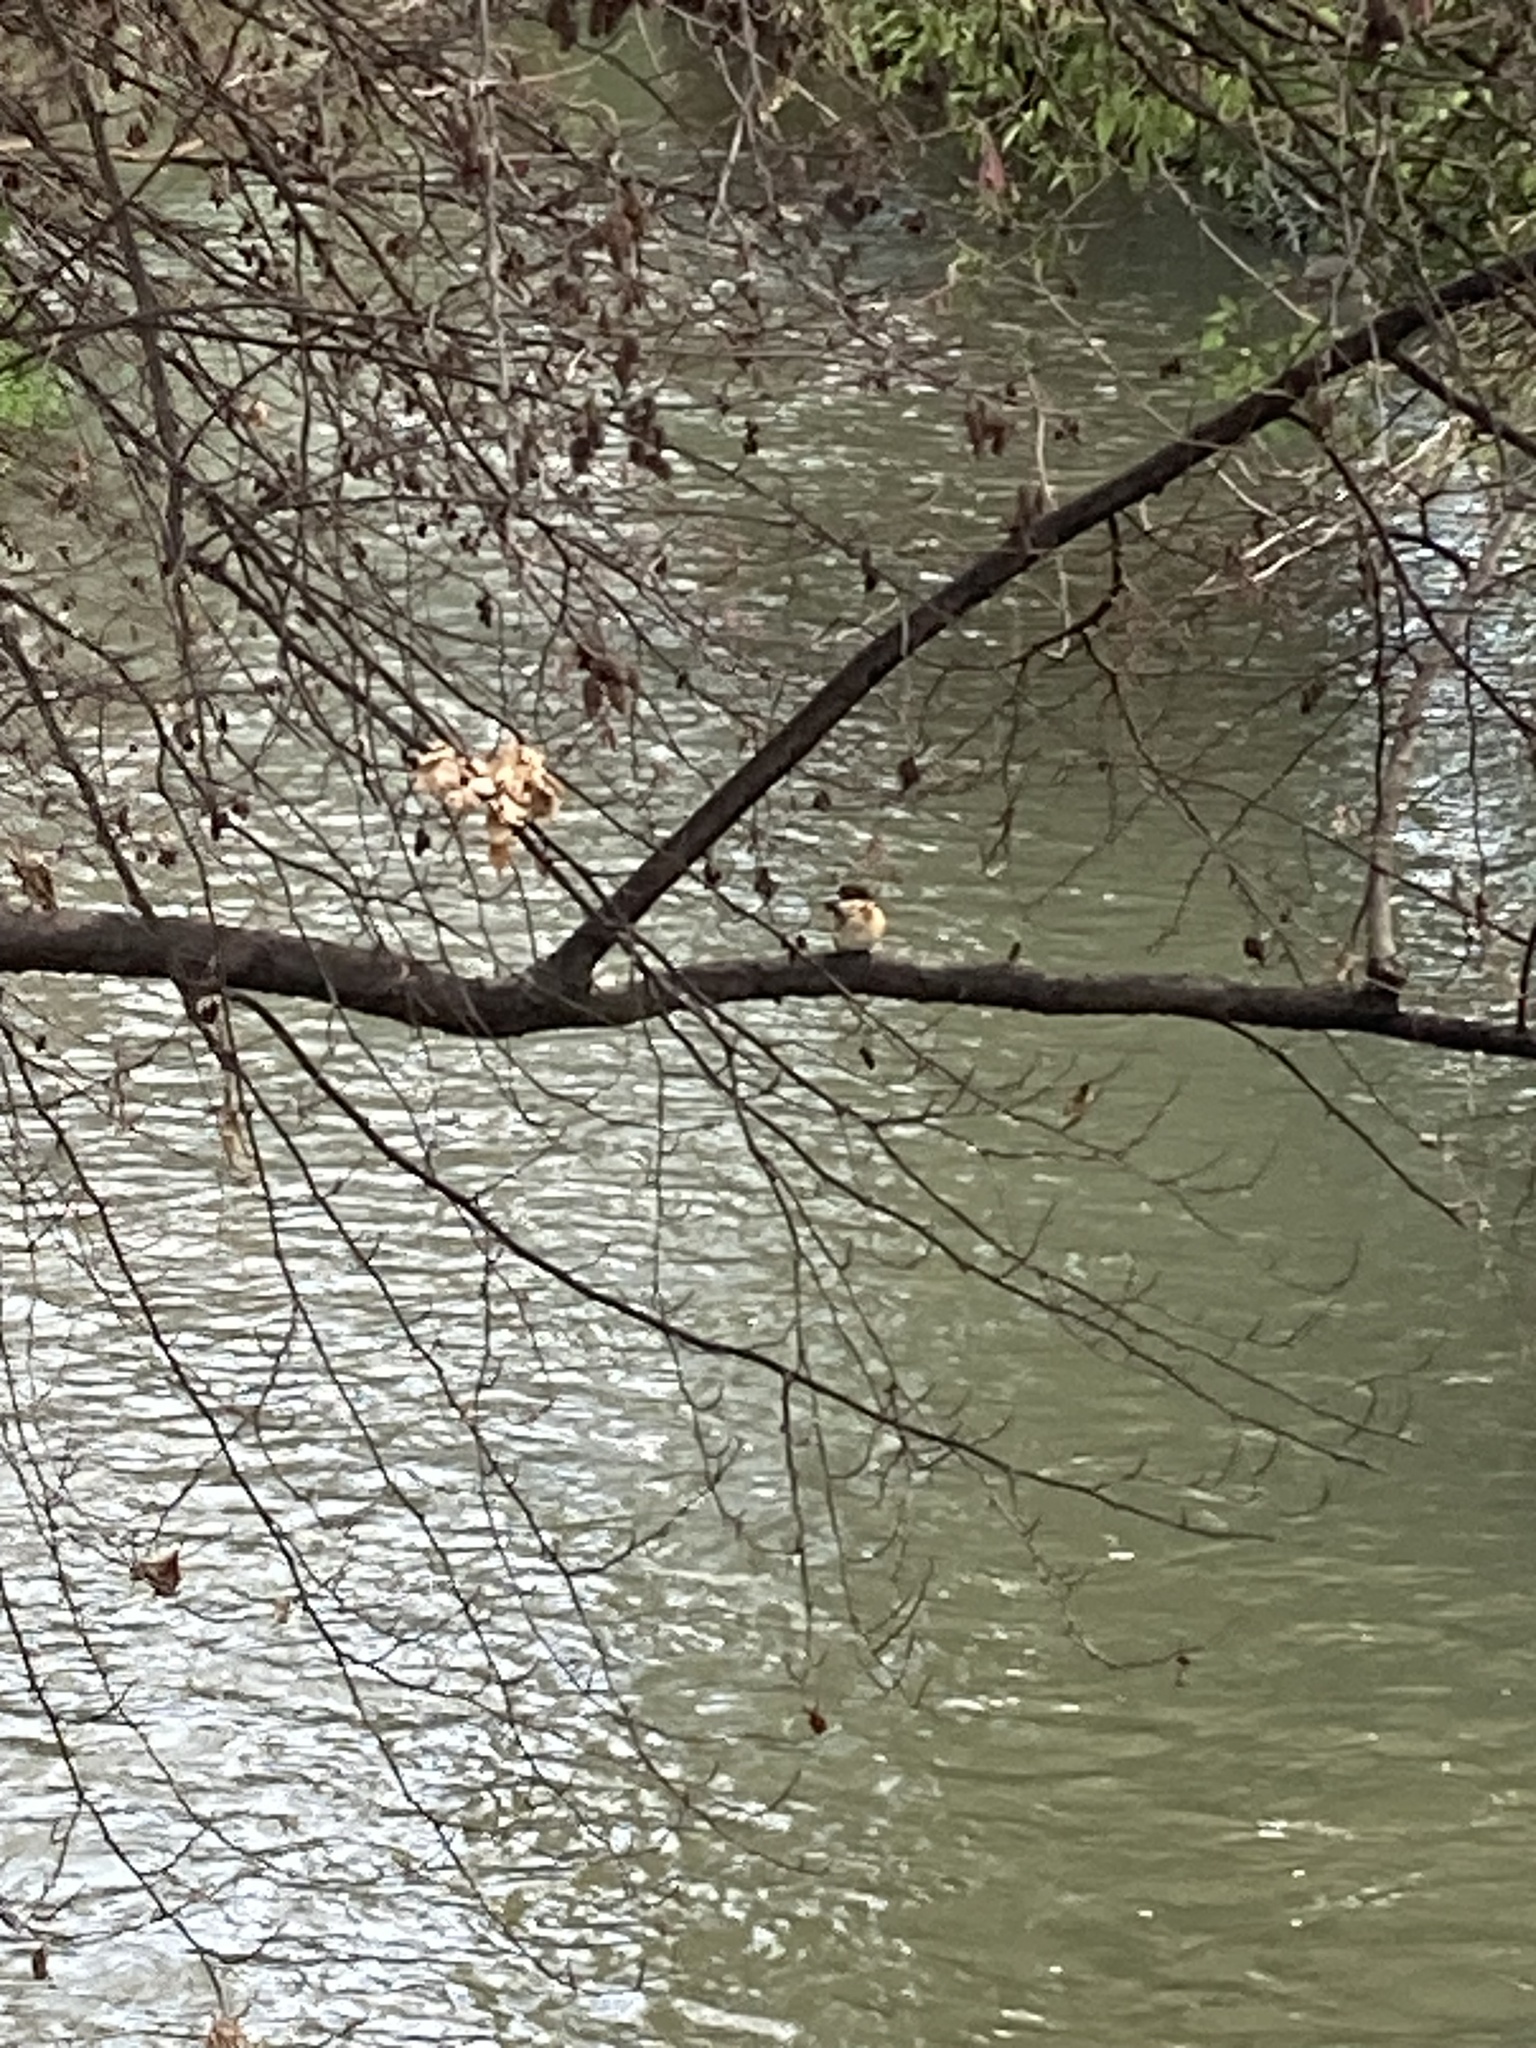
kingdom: Animalia
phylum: Chordata
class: Aves
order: Coraciiformes
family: Alcedinidae
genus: Todiramphus
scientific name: Todiramphus sanctus
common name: Sacred kingfisher
